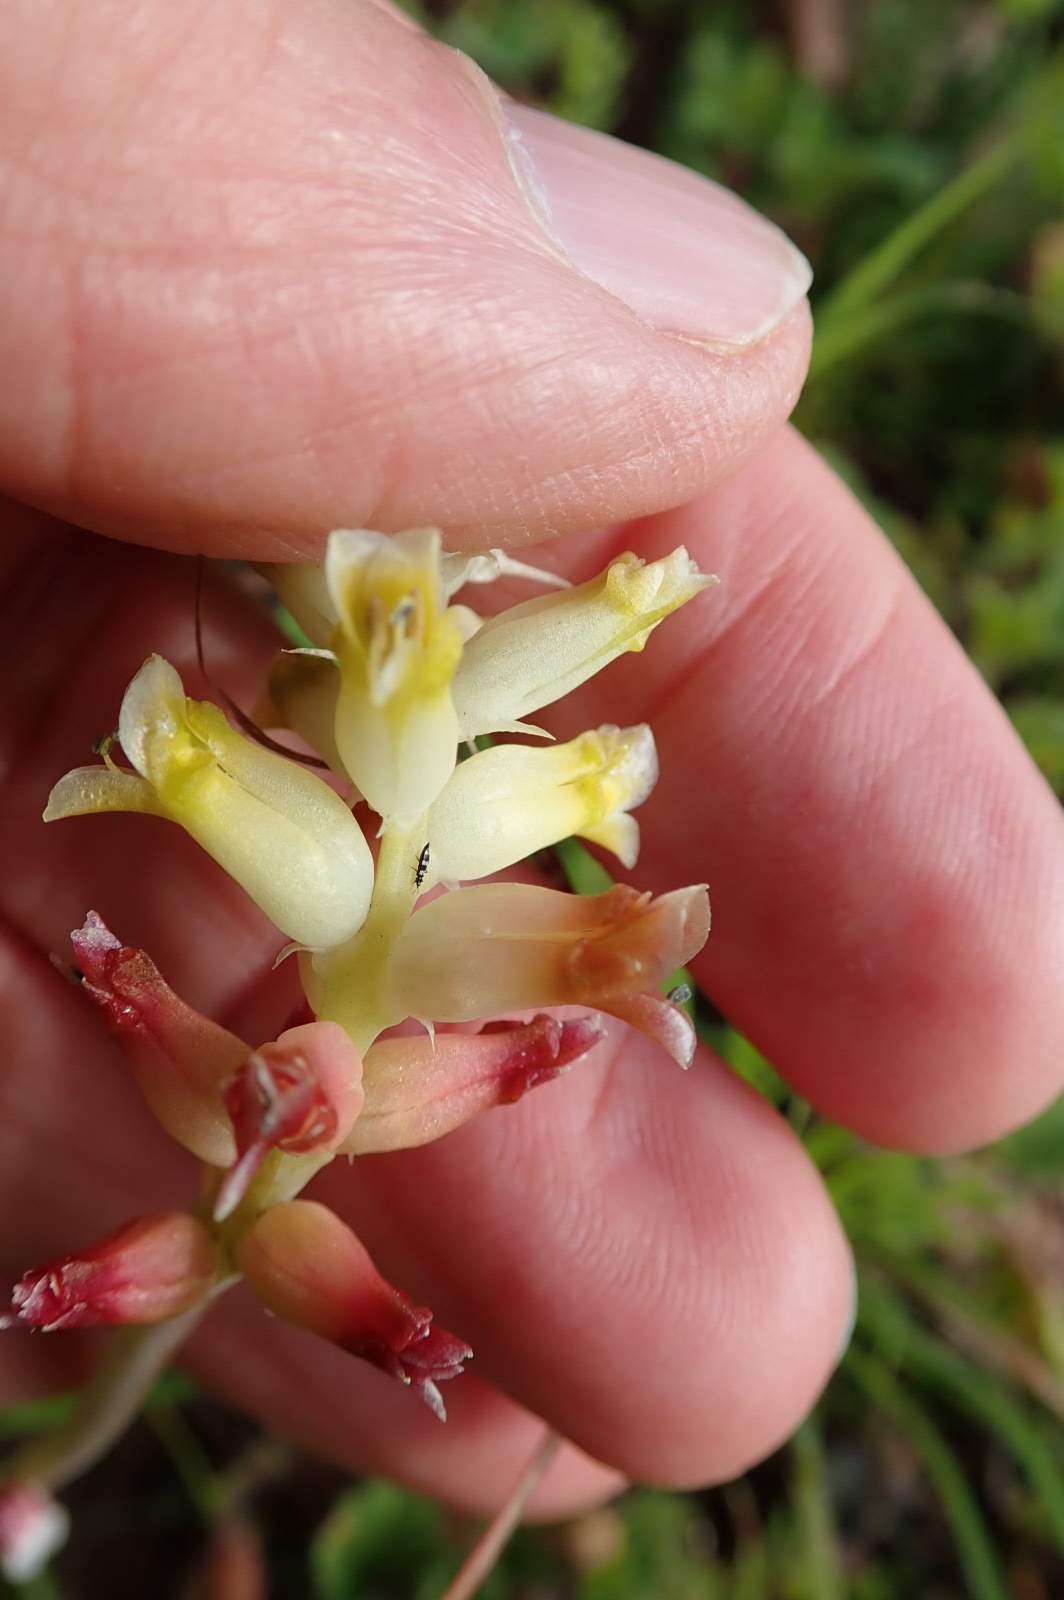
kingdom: Plantae
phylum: Tracheophyta
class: Liliopsida
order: Asparagales
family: Asparagaceae
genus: Lachenalia
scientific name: Lachenalia pallida
